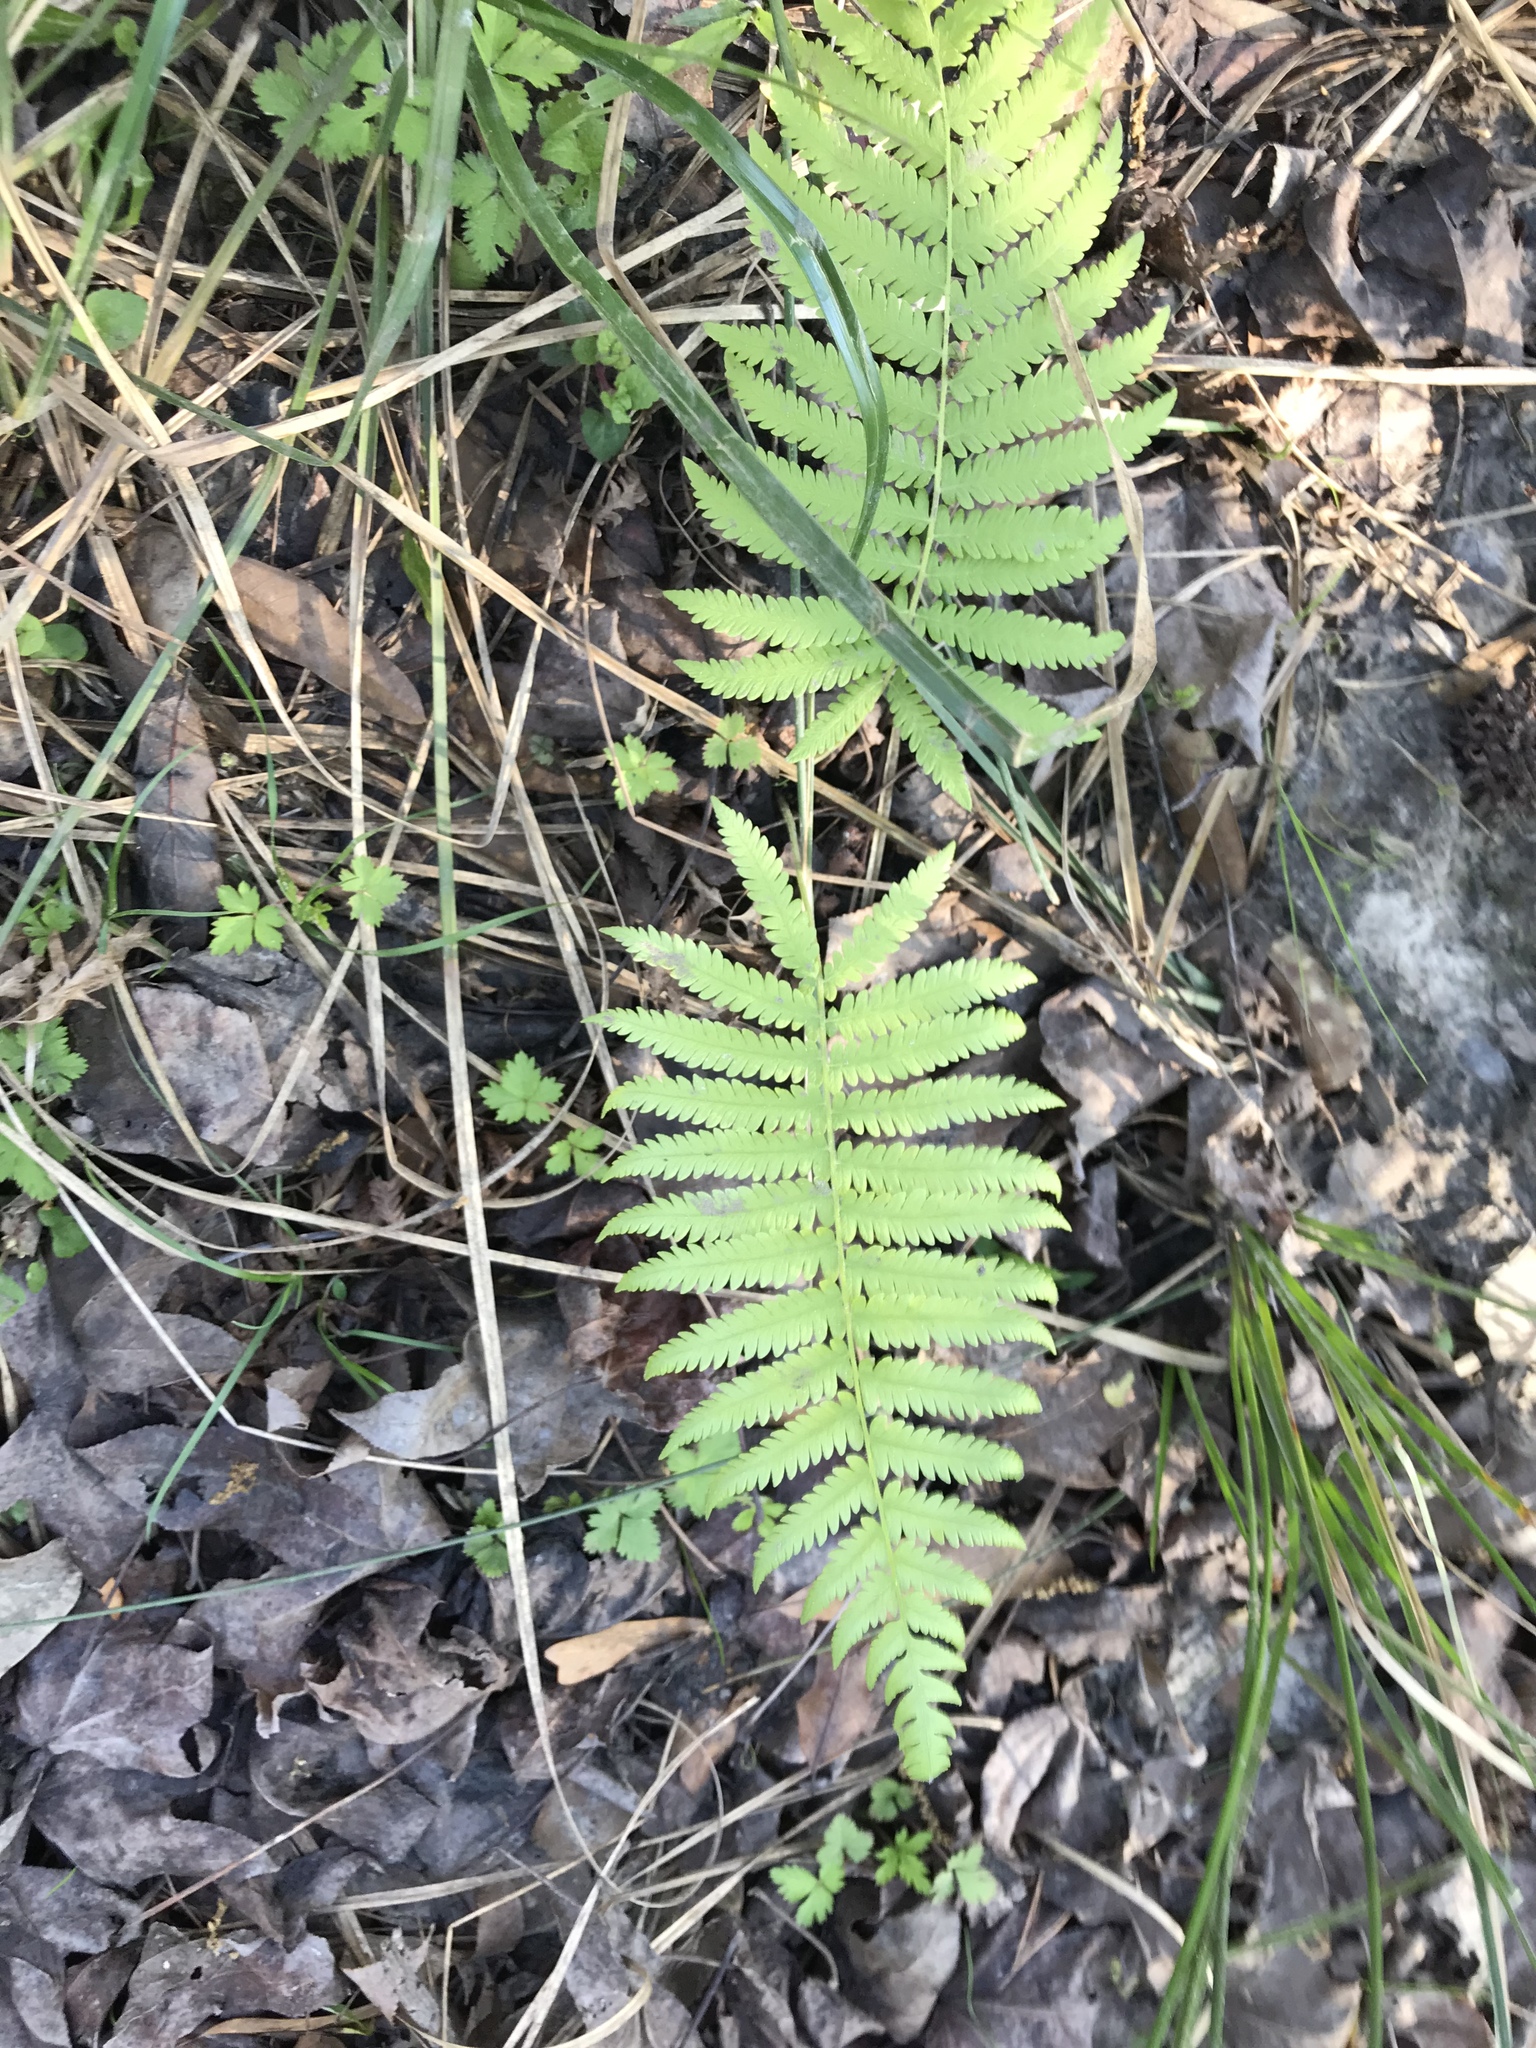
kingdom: Plantae
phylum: Tracheophyta
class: Polypodiopsida
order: Osmundales
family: Osmundaceae
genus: Osmundastrum
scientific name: Osmundastrum cinnamomeum
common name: Cinnamon fern
